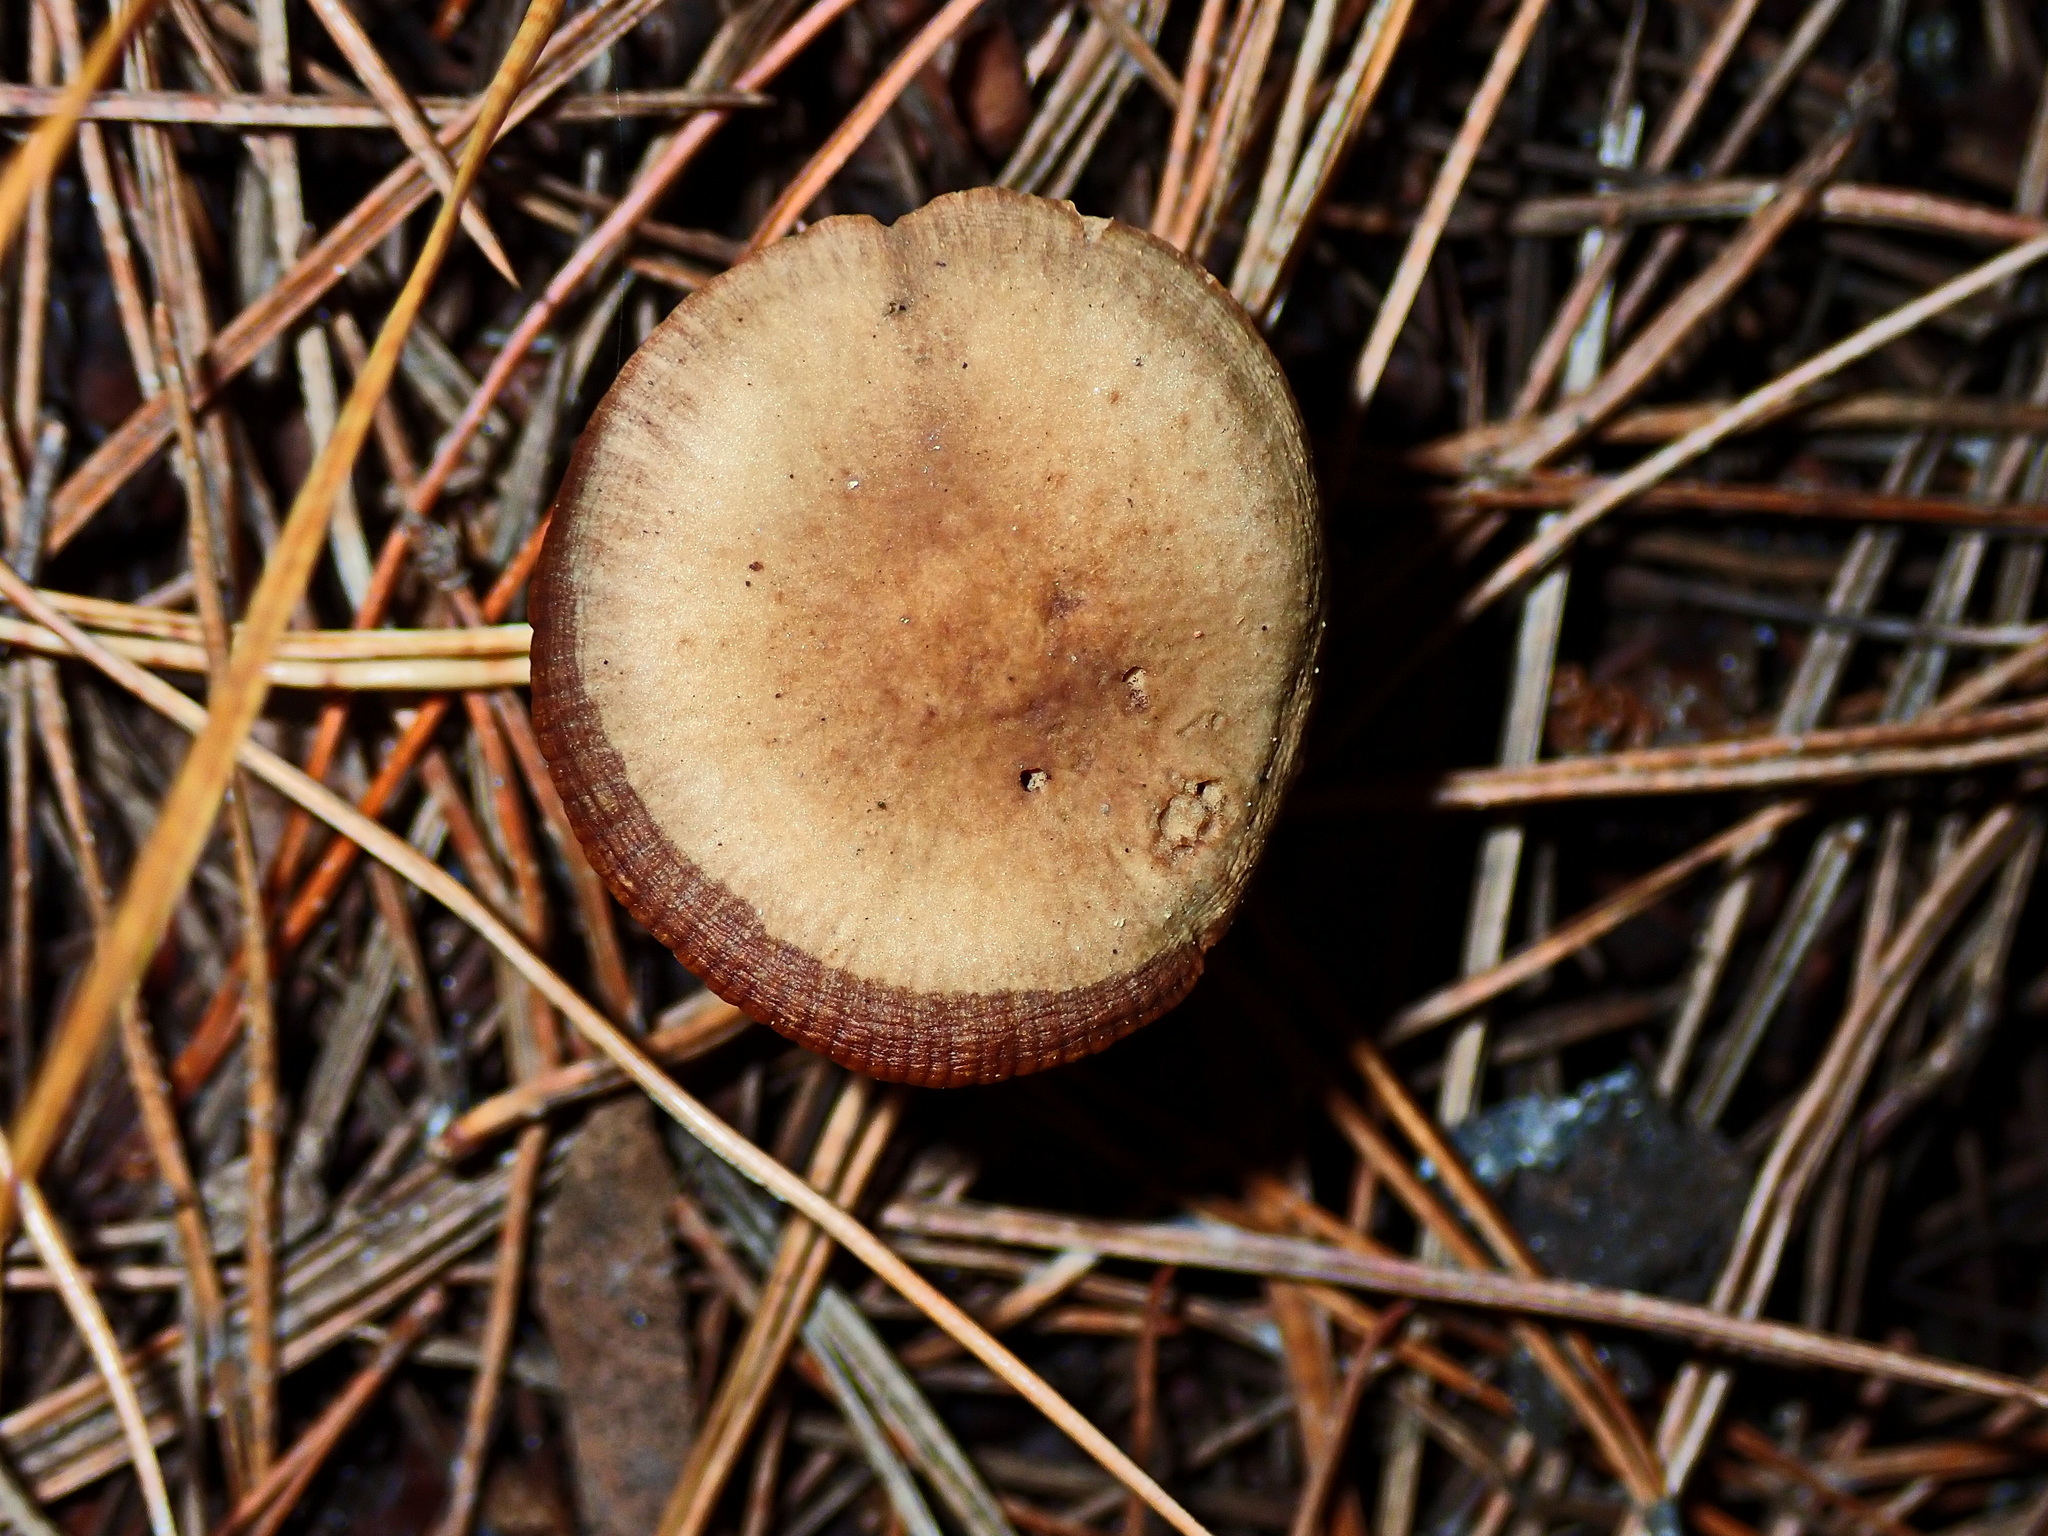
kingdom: Fungi
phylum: Basidiomycota
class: Agaricomycetes
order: Agaricales
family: Bolbitiaceae
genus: Conocybe
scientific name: Conocybe rugosa
